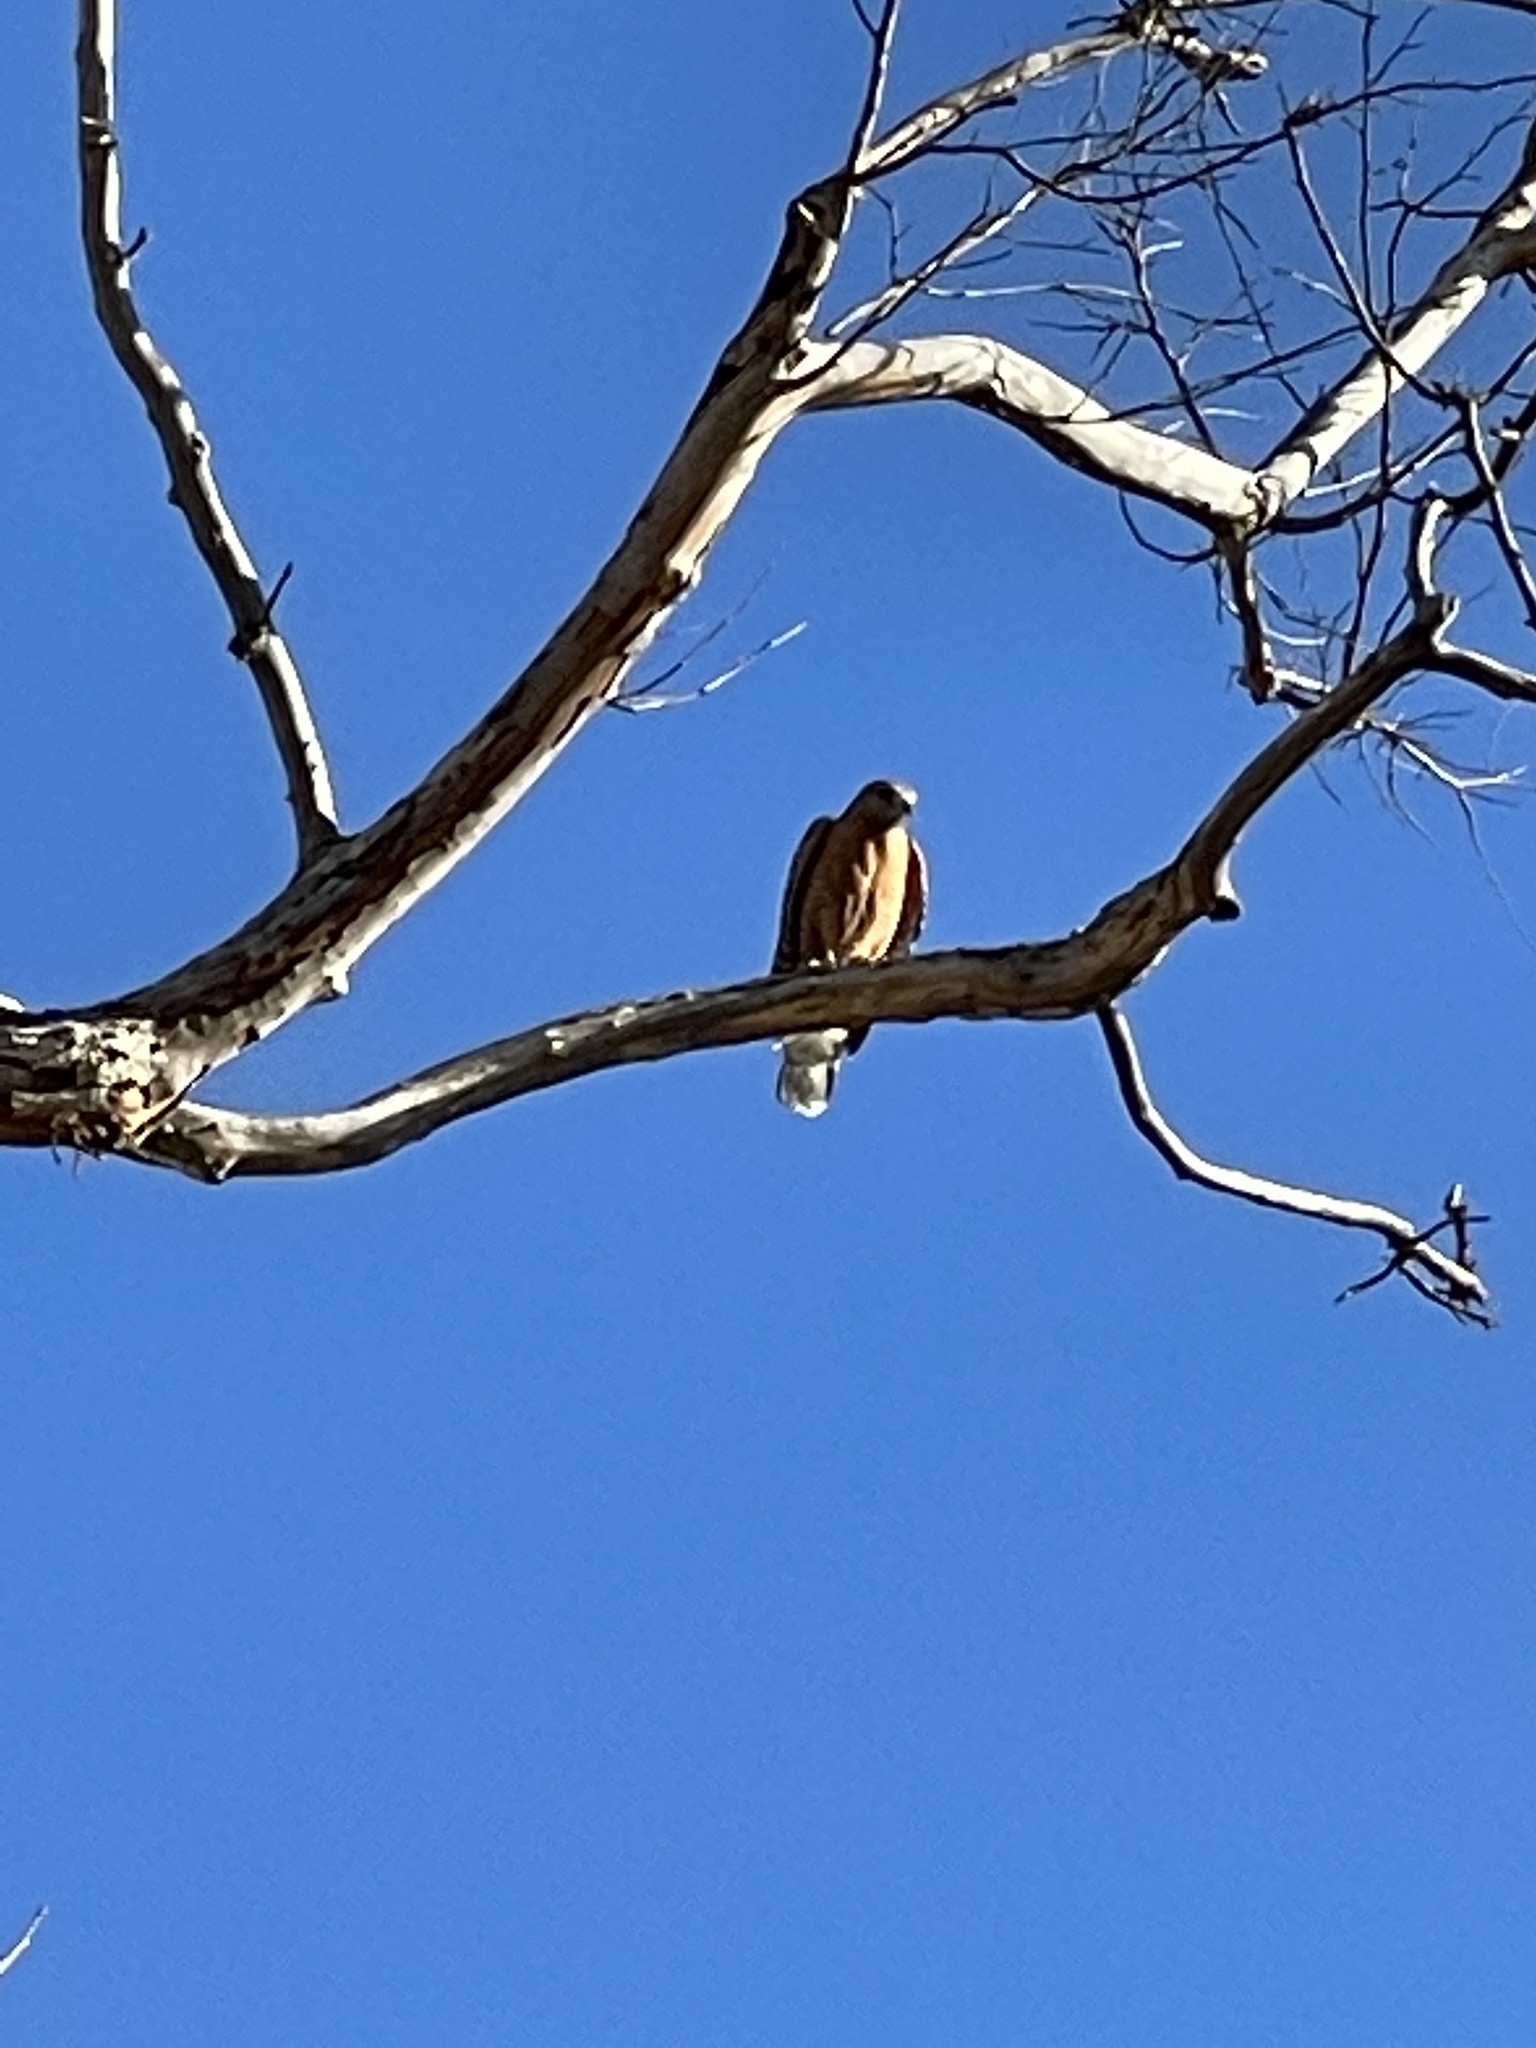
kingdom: Animalia
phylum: Chordata
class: Aves
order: Accipitriformes
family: Accipitridae
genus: Buteo
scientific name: Buteo lineatus
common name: Red-shouldered hawk
